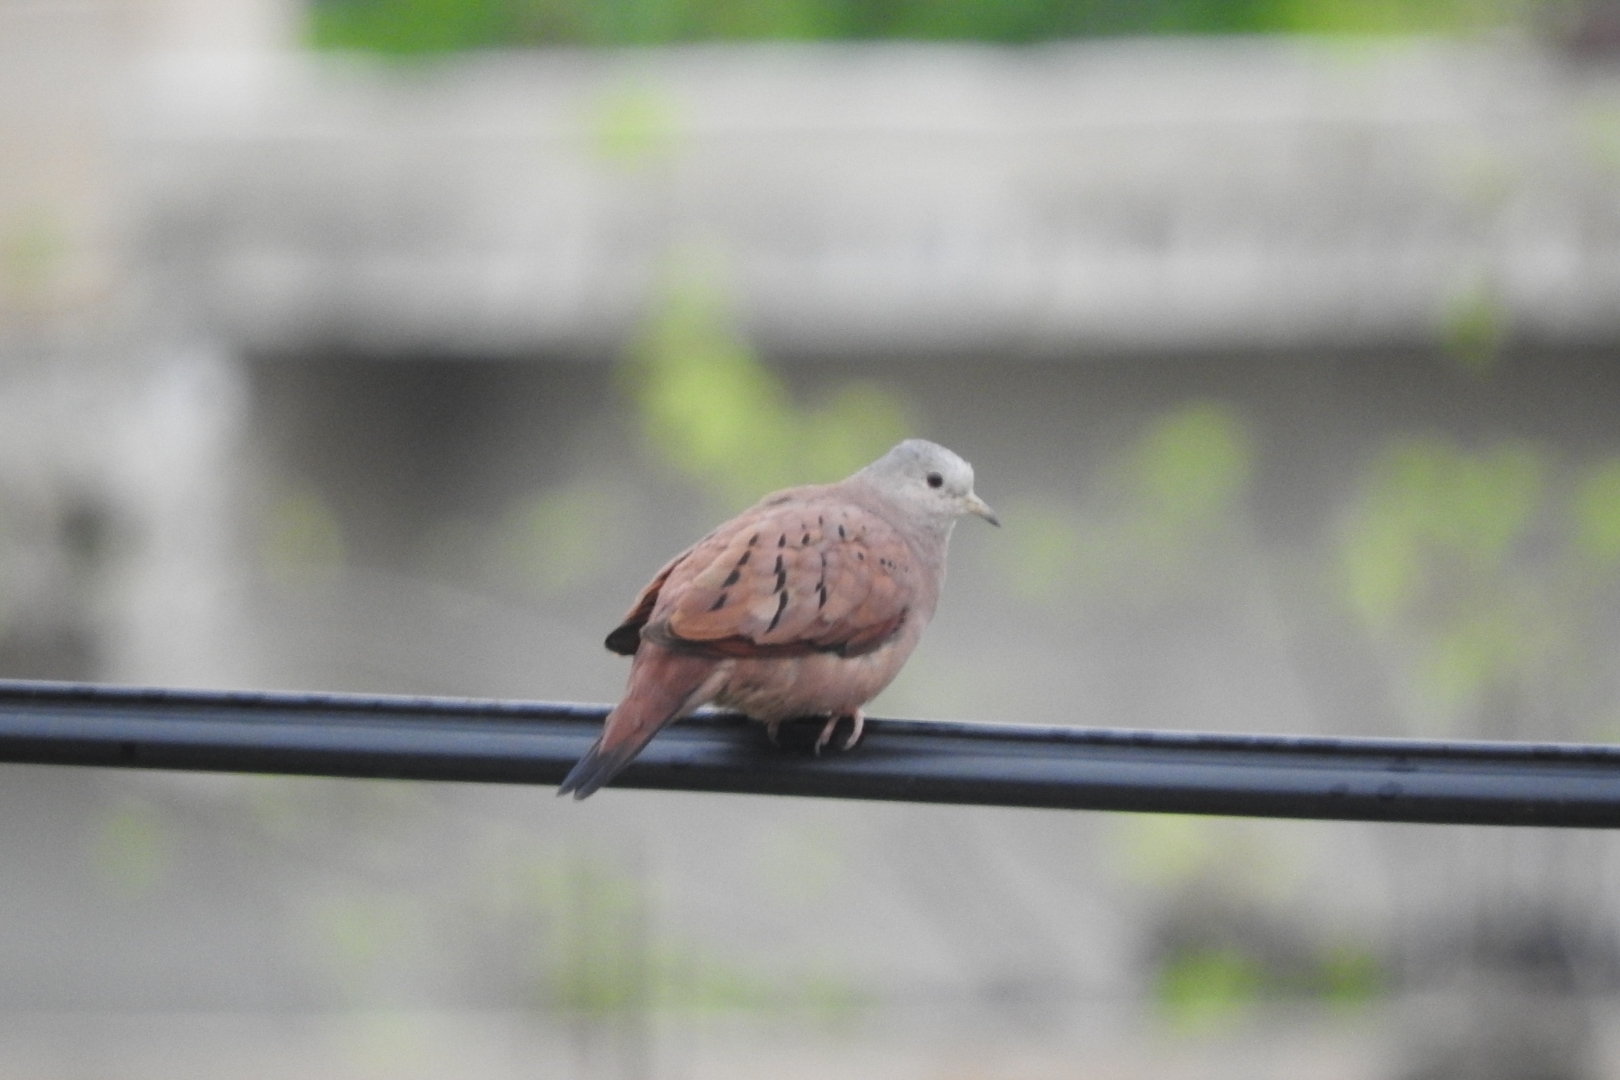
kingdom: Animalia
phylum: Chordata
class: Aves
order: Columbiformes
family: Columbidae
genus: Columbina
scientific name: Columbina talpacoti
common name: Ruddy ground dove
